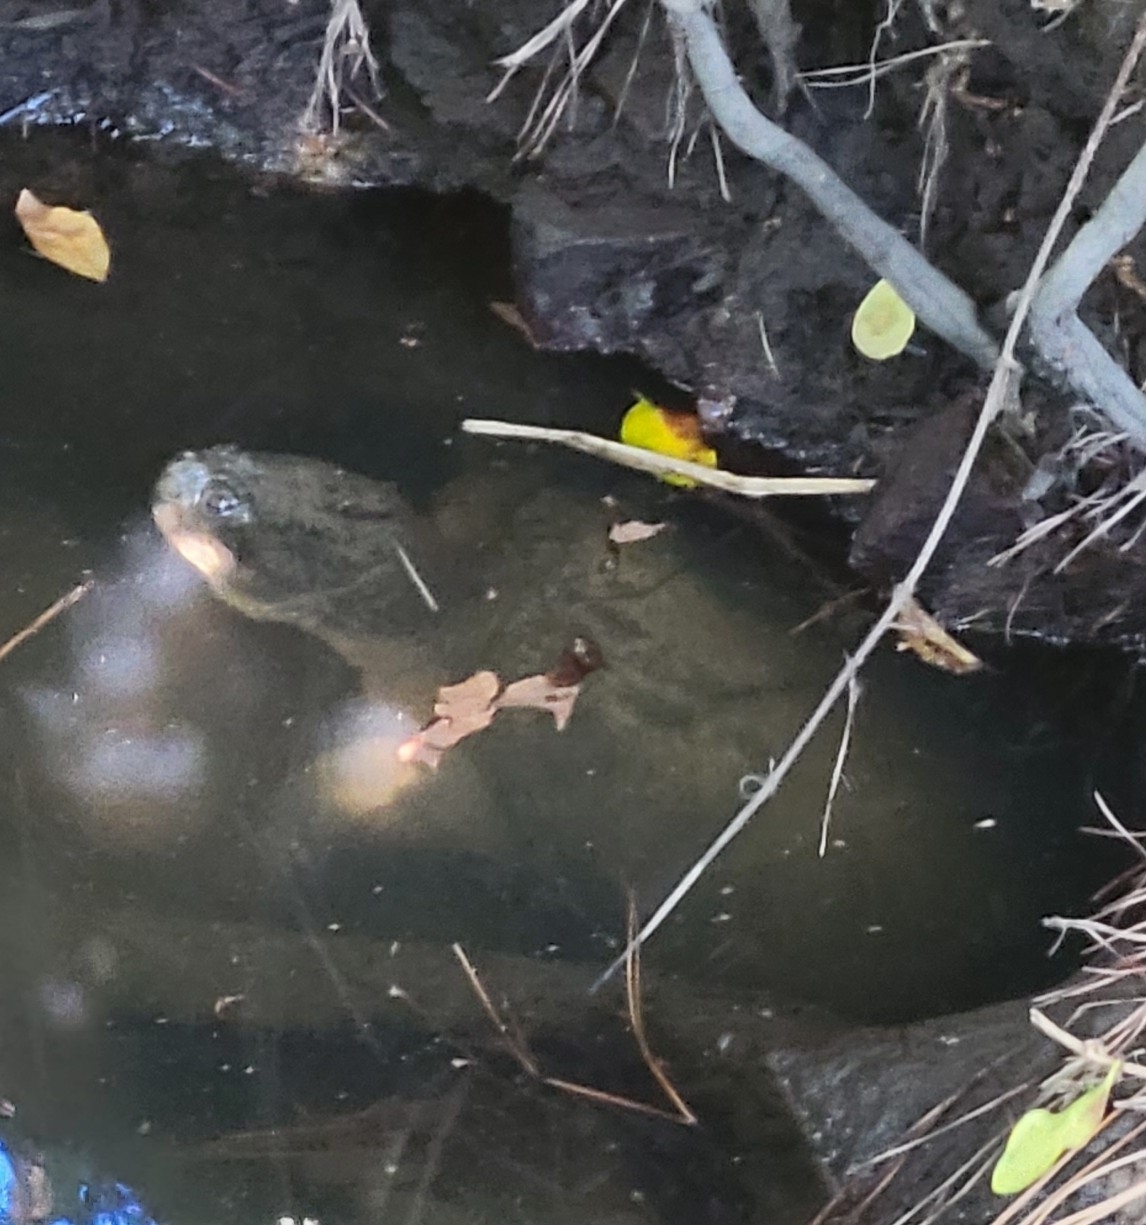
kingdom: Animalia
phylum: Chordata
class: Testudines
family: Chelydridae
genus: Chelydra
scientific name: Chelydra serpentina
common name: Common snapping turtle
